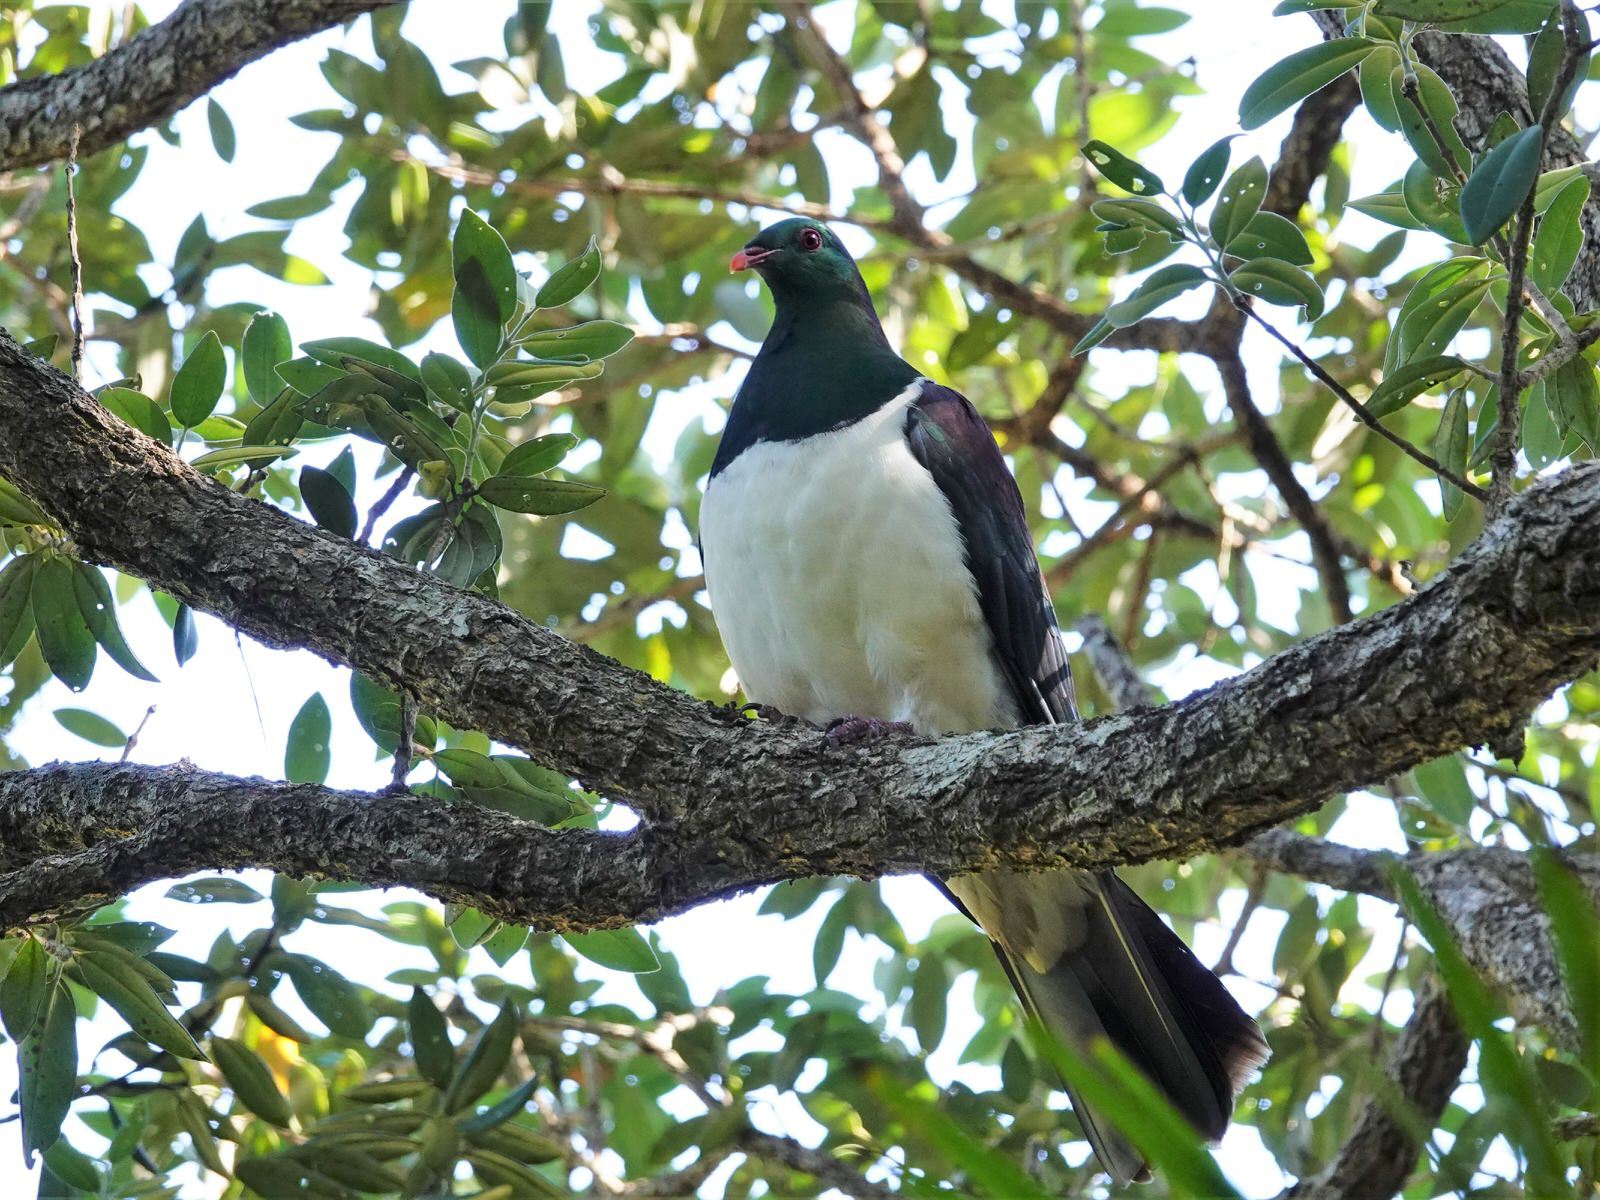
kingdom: Animalia
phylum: Chordata
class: Aves
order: Columbiformes
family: Columbidae
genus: Hemiphaga
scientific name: Hemiphaga novaeseelandiae
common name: New zealand pigeon
